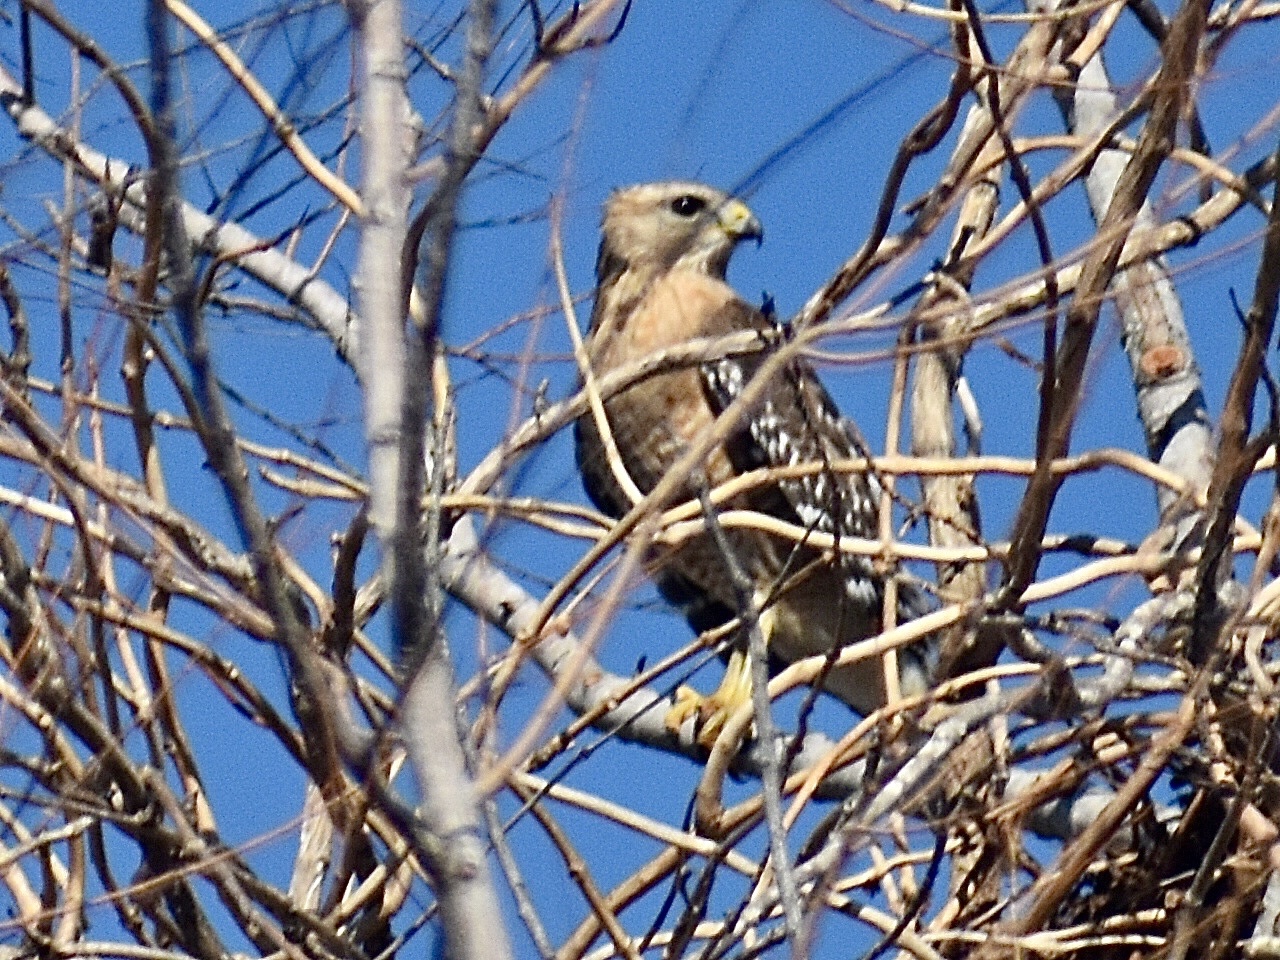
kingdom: Animalia
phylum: Chordata
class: Aves
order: Accipitriformes
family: Accipitridae
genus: Buteo
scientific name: Buteo lineatus
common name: Red-shouldered hawk
